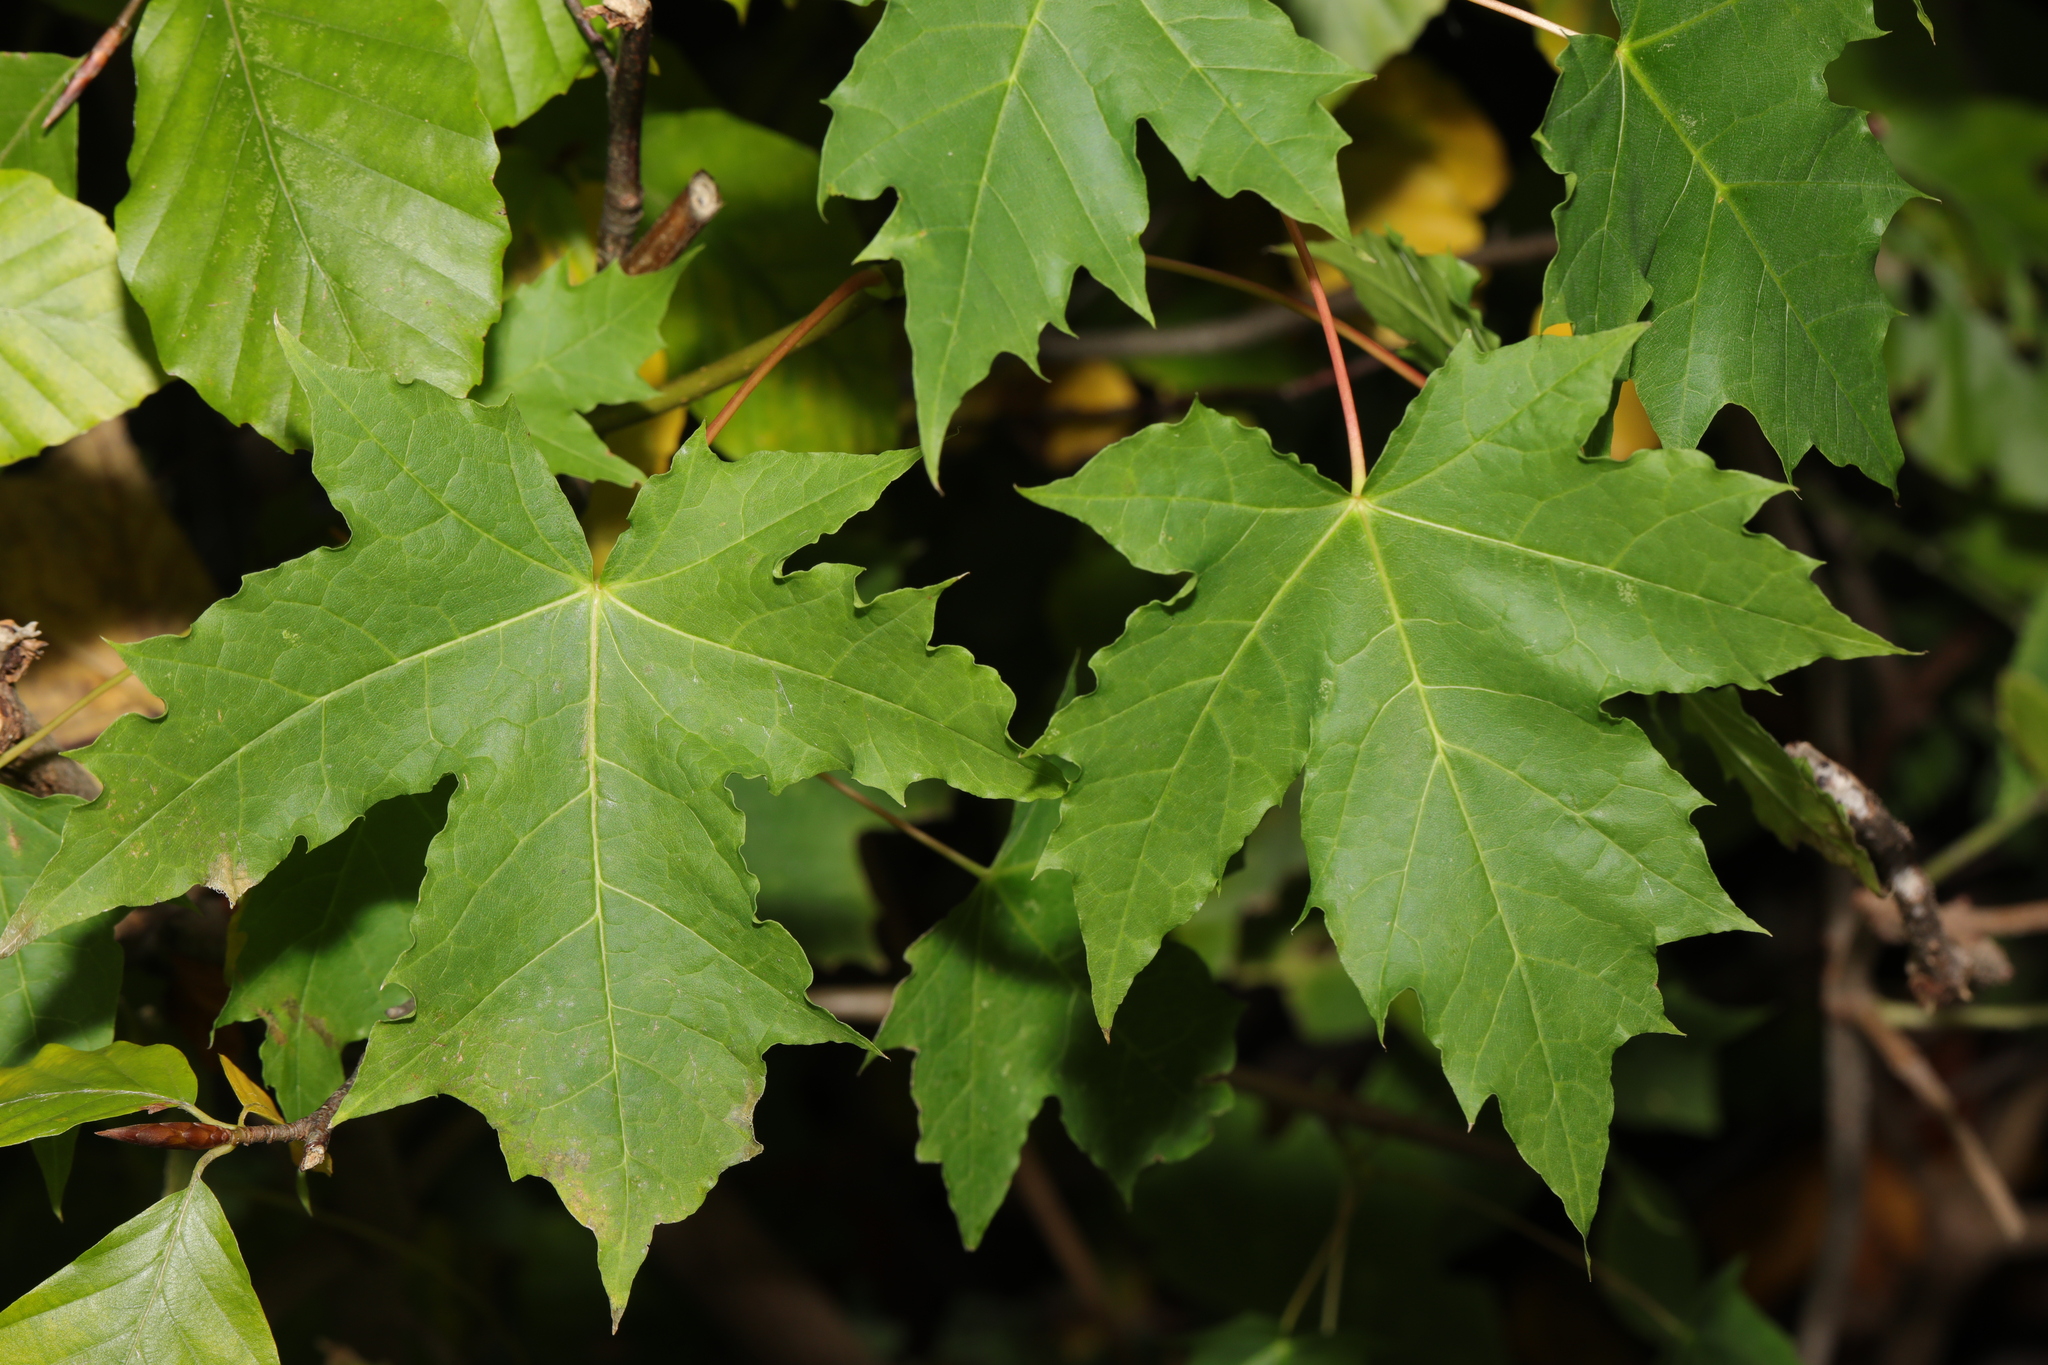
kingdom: Plantae
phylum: Tracheophyta
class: Magnoliopsida
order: Sapindales
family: Sapindaceae
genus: Acer
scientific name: Acer saccharinum
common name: Silver maple
